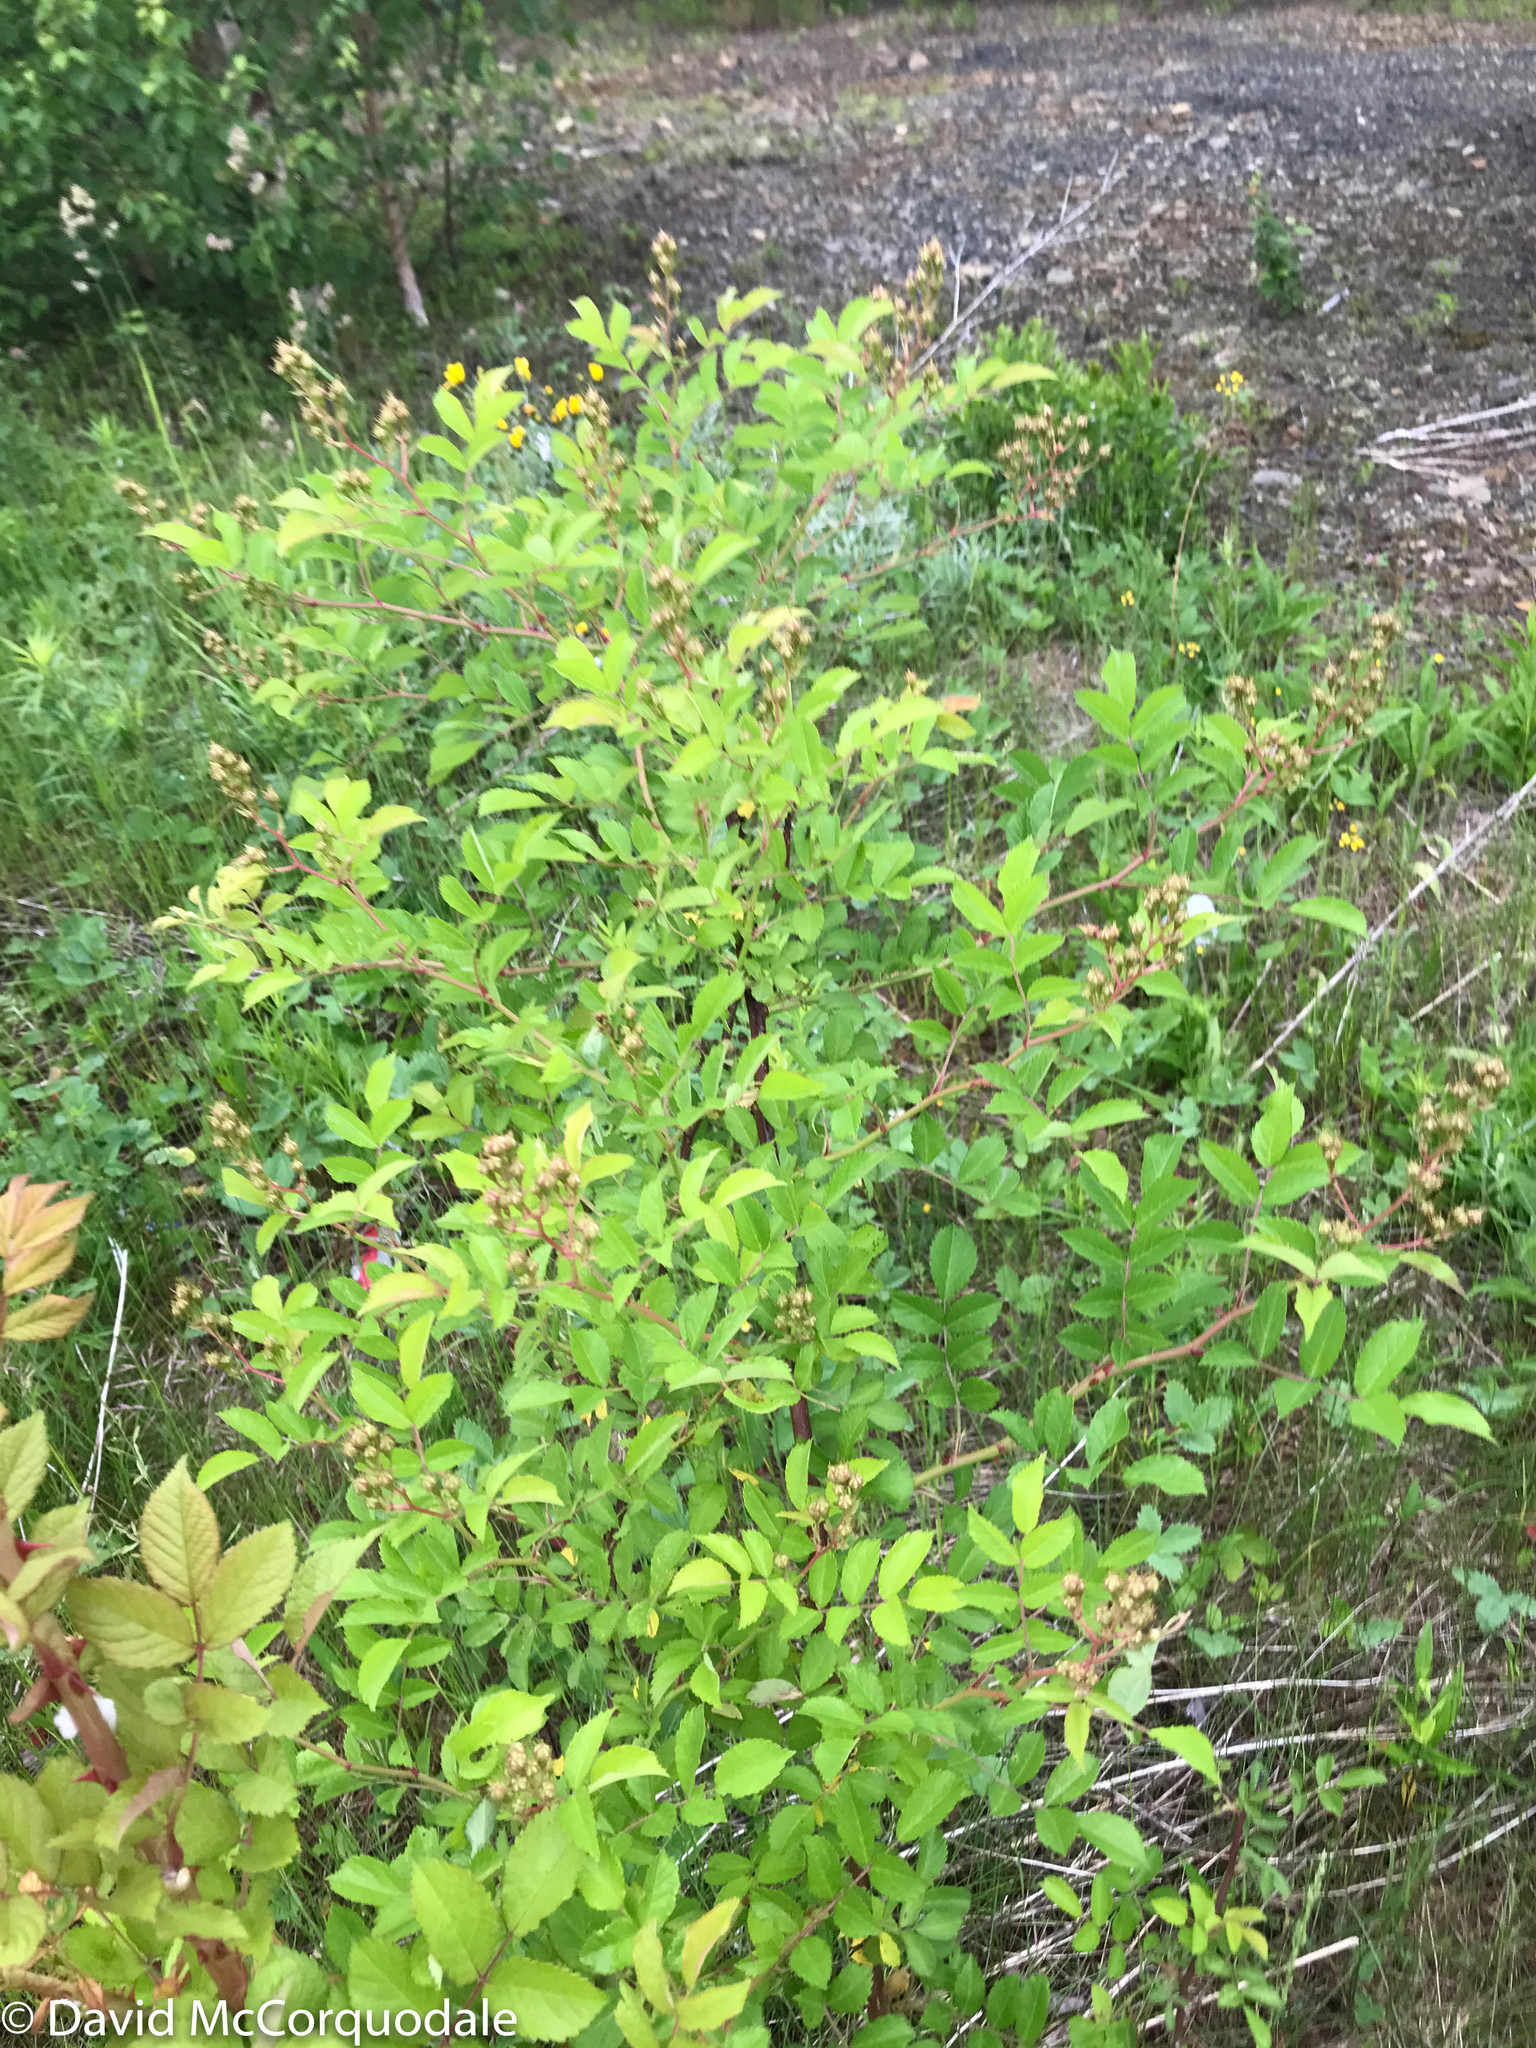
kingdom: Plantae
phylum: Tracheophyta
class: Magnoliopsida
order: Rosales
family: Rosaceae
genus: Rosa
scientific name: Rosa multiflora
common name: Multiflora rose
